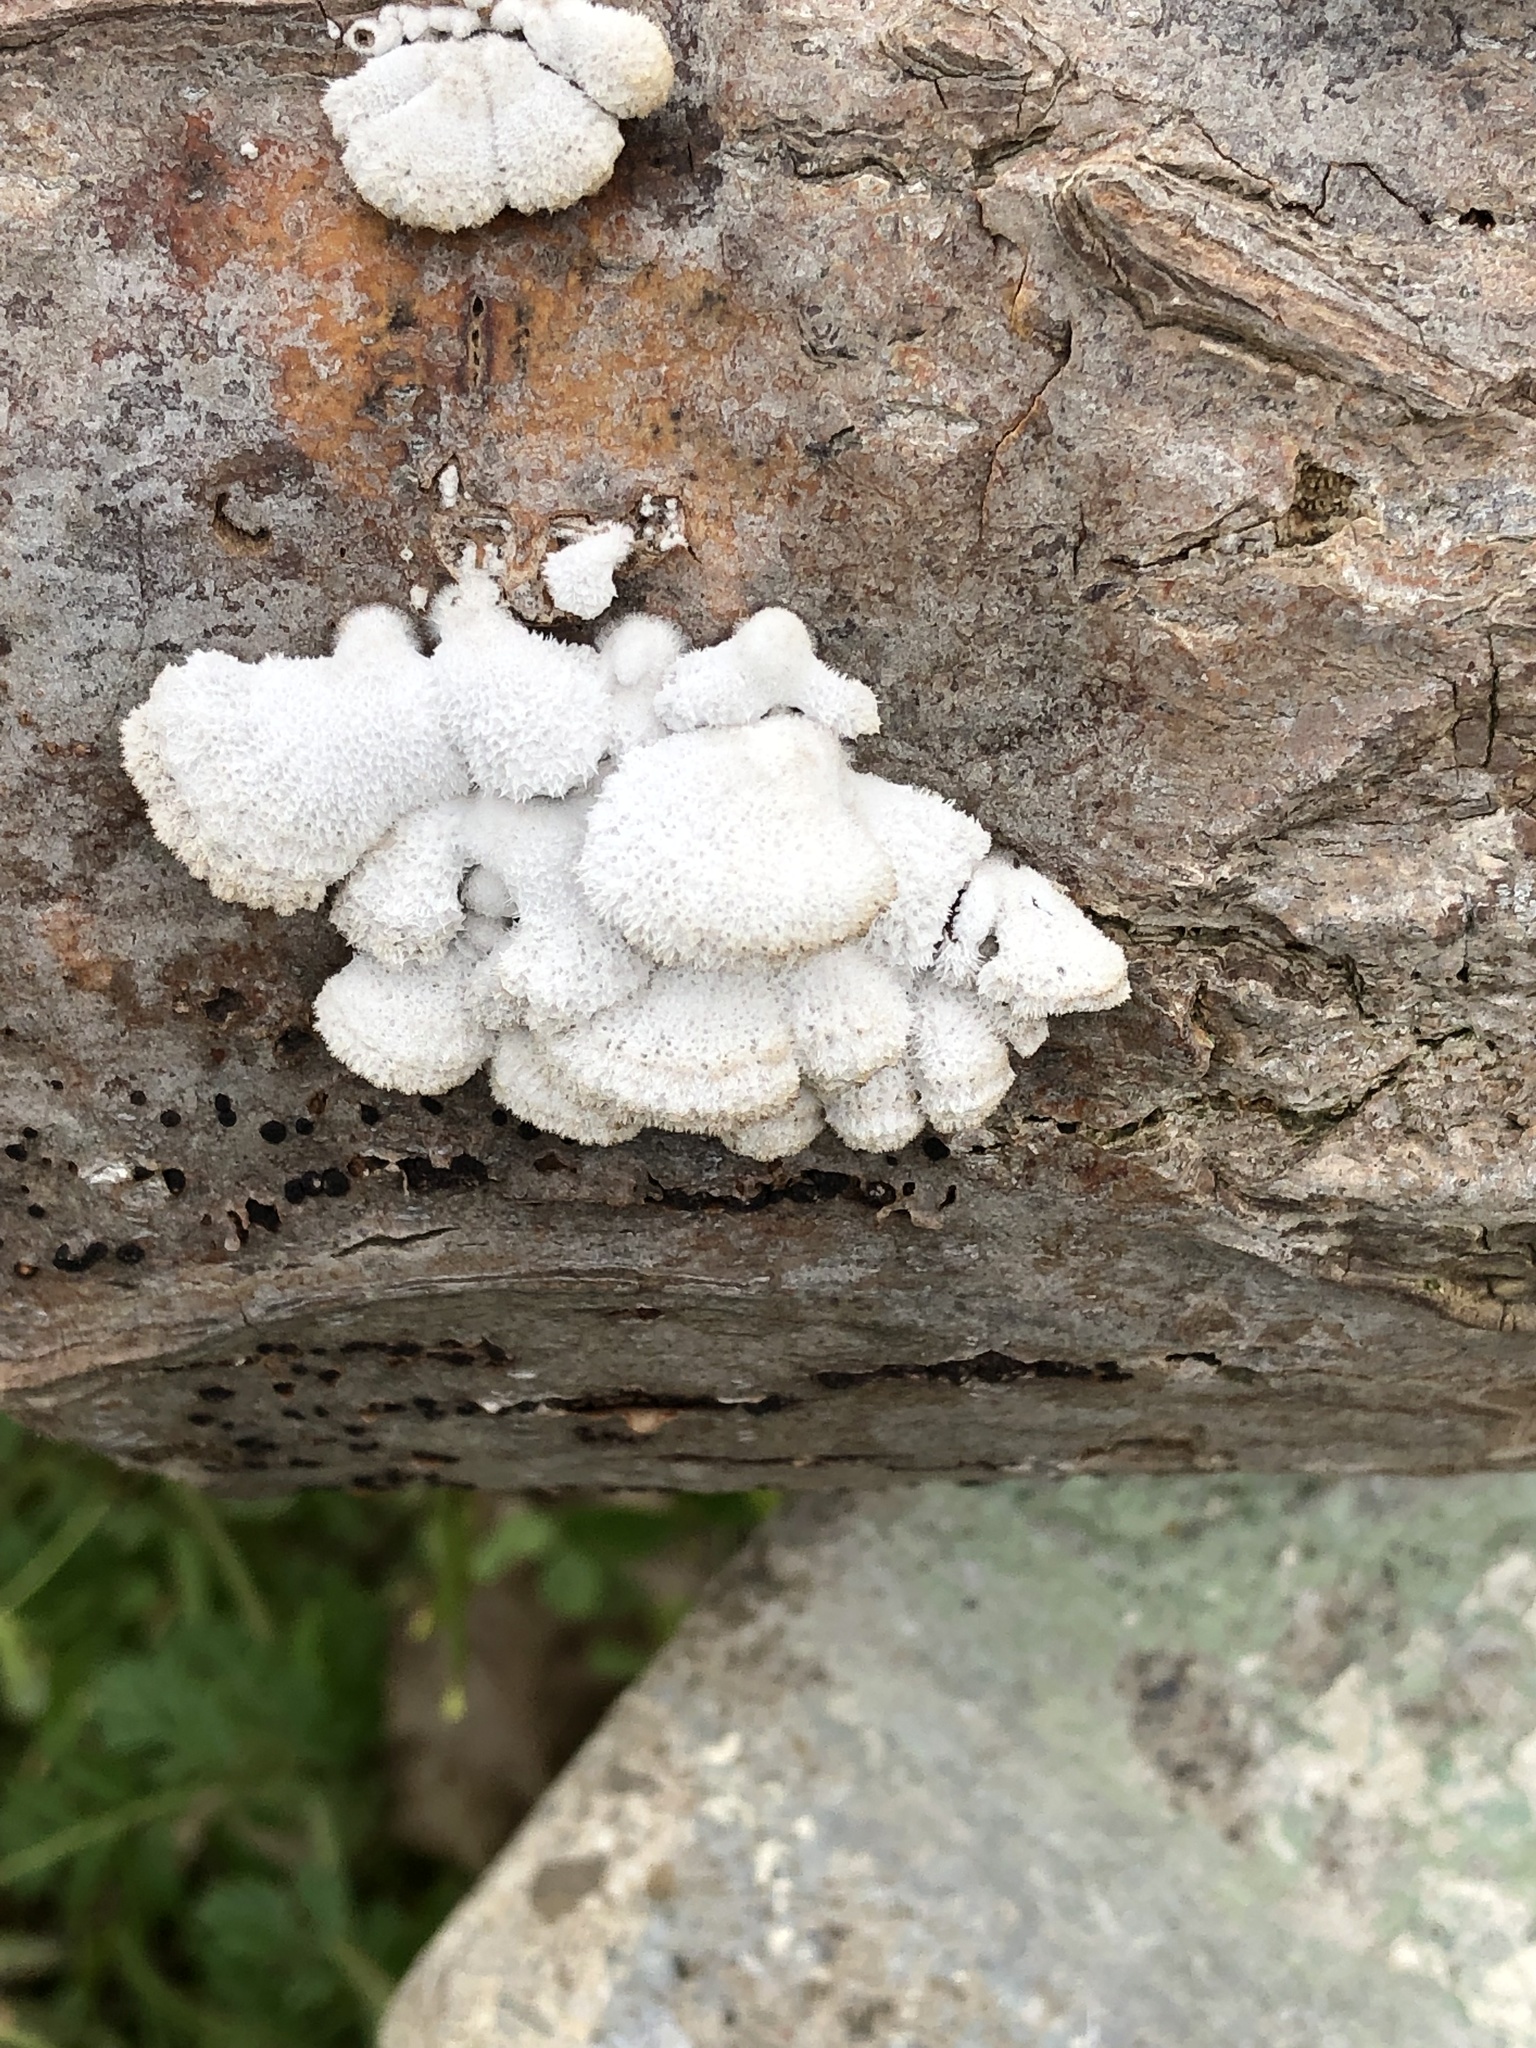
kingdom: Fungi
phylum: Basidiomycota
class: Agaricomycetes
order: Agaricales
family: Schizophyllaceae
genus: Schizophyllum
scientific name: Schizophyllum commune
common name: Common porecrust
